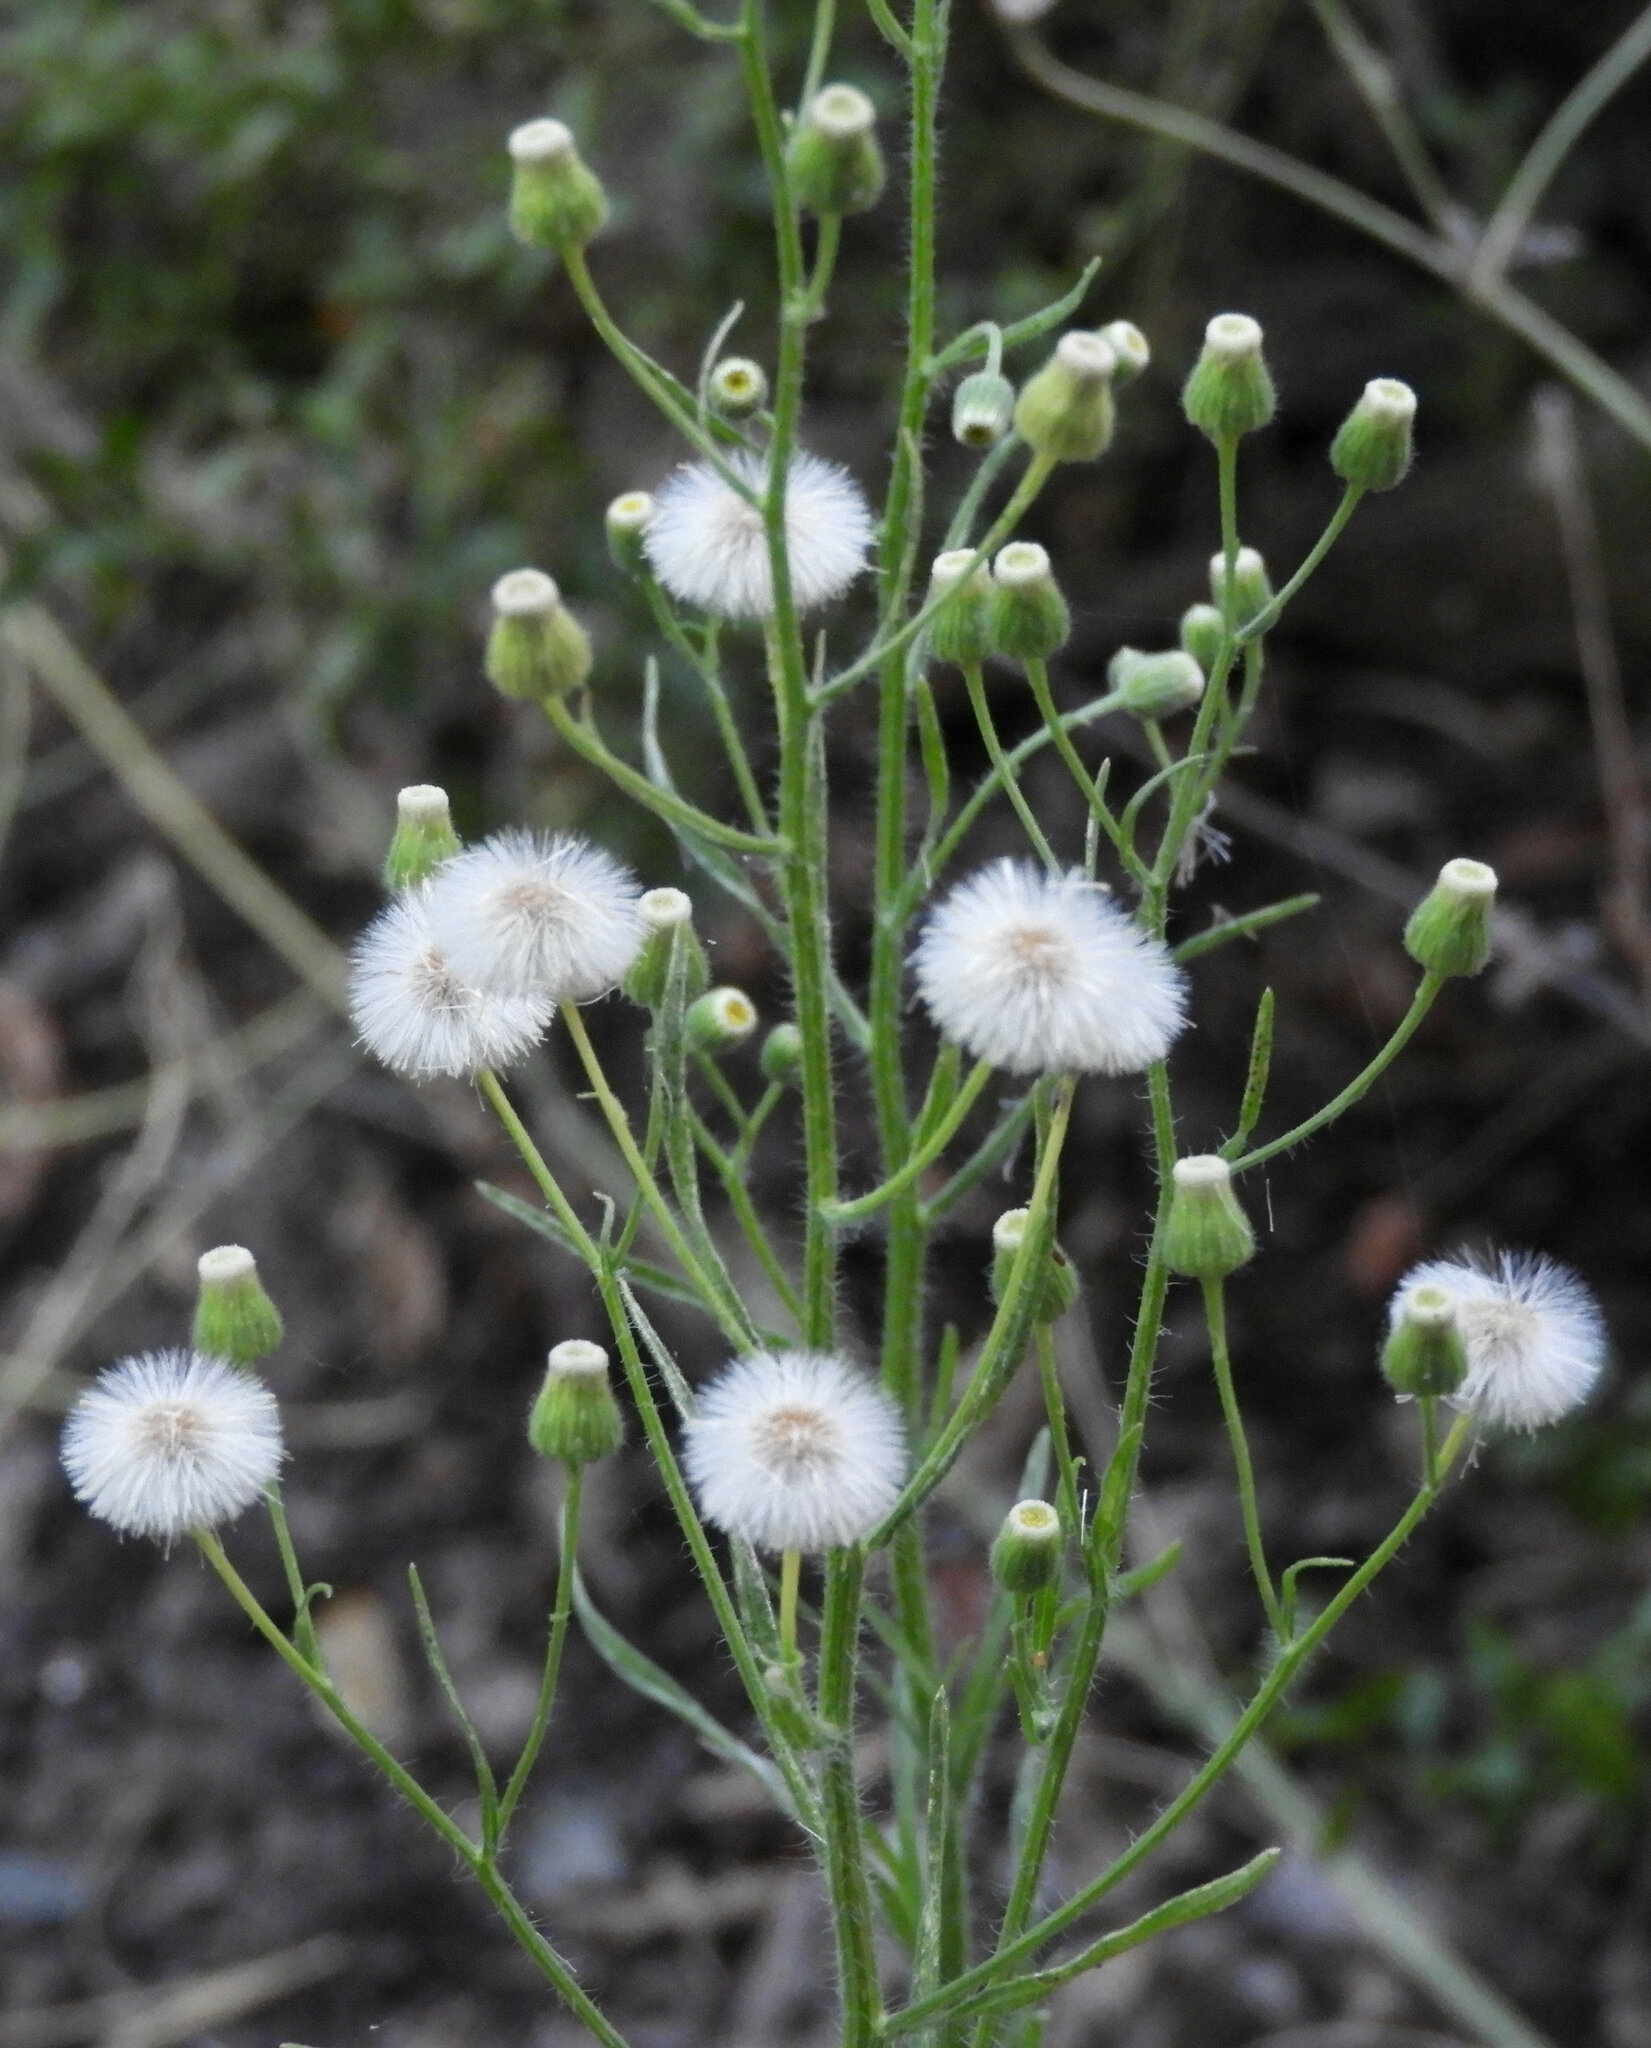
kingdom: Plantae
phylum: Tracheophyta
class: Magnoliopsida
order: Asterales
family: Asteraceae
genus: Erigeron
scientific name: Erigeron bonariensis
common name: Argentine fleabane
